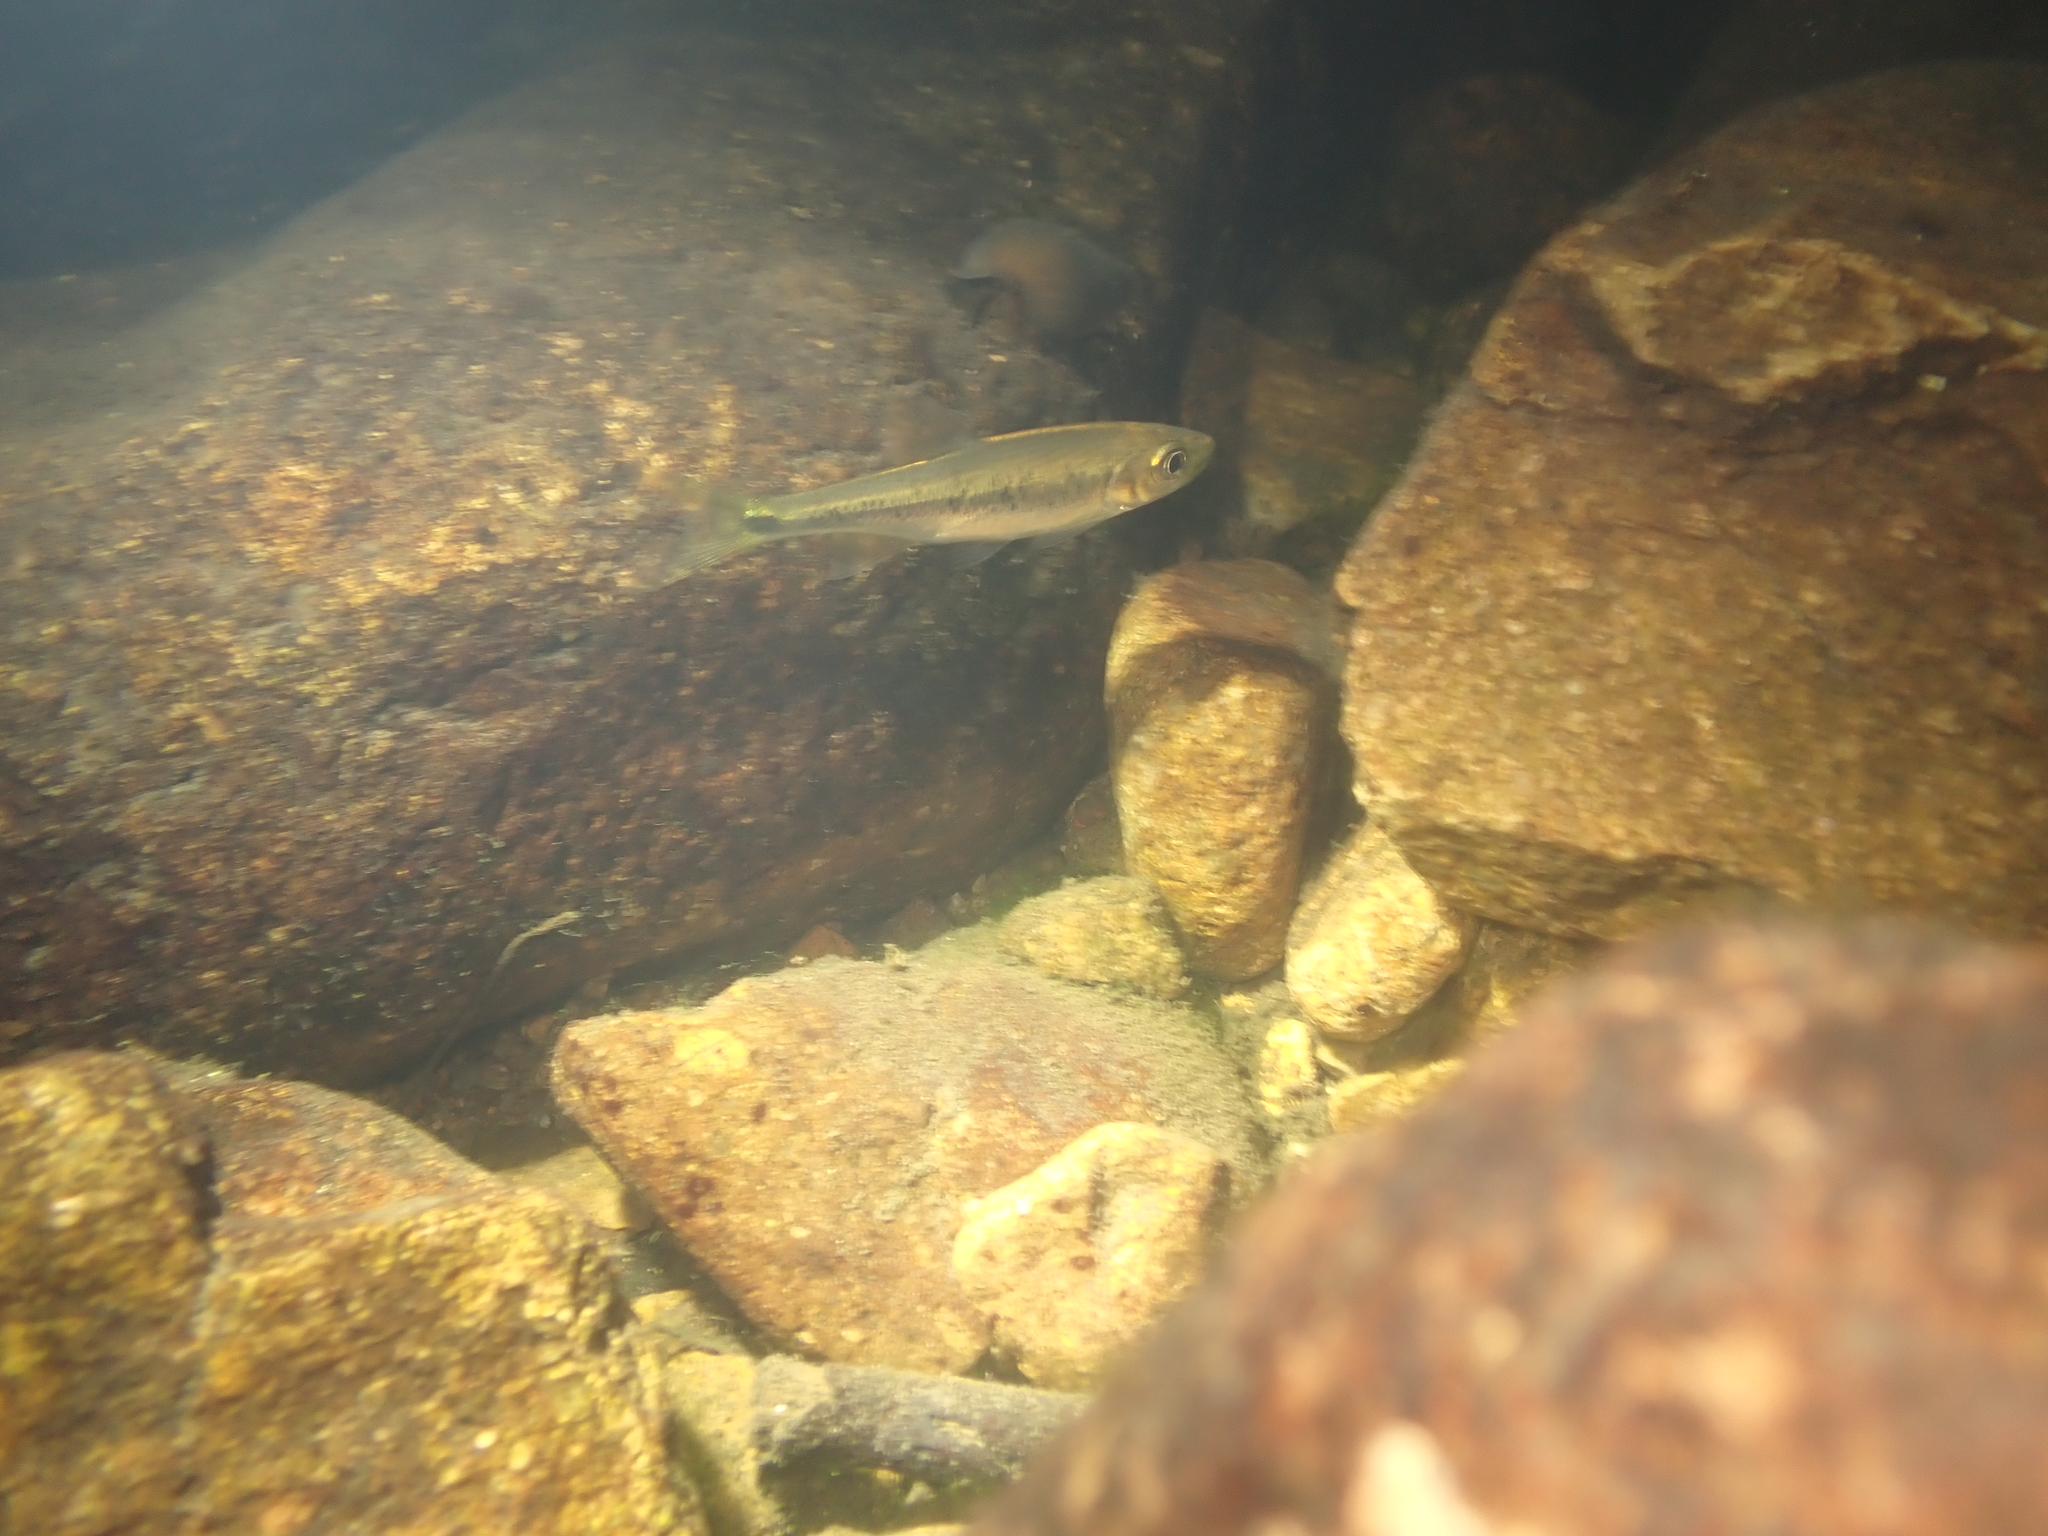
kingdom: Animalia
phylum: Chordata
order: Cypriniformes
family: Cyprinidae
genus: Parazacco
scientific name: Parazacco spilurus
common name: Predaceous chub
